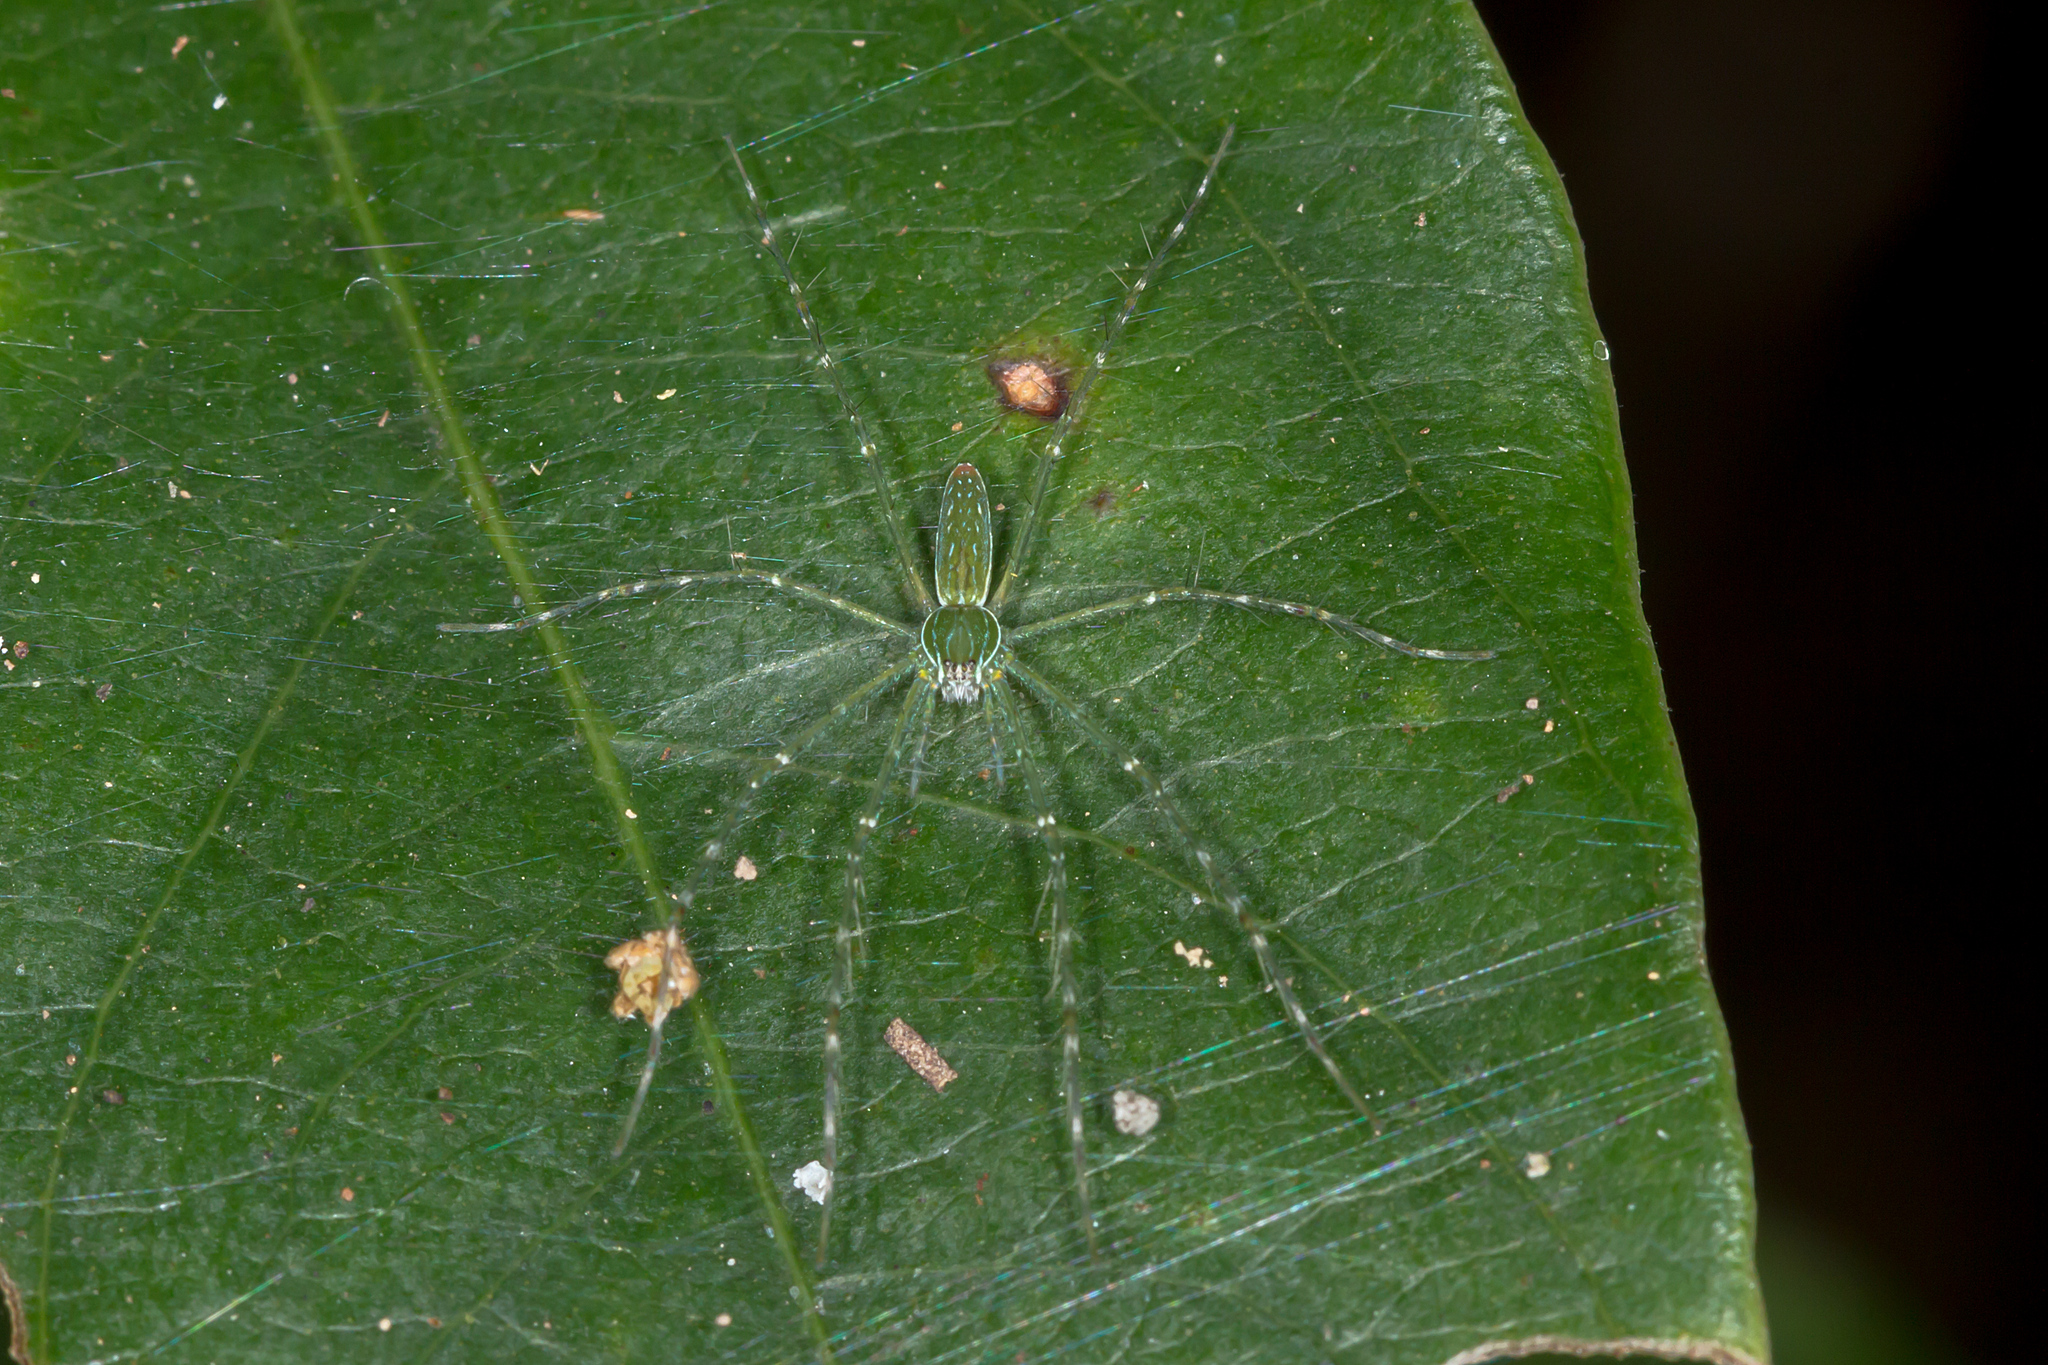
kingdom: Animalia
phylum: Arthropoda
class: Arachnida
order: Araneae
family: Pisauridae
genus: Hygropoda
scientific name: Hygropoda lineata
